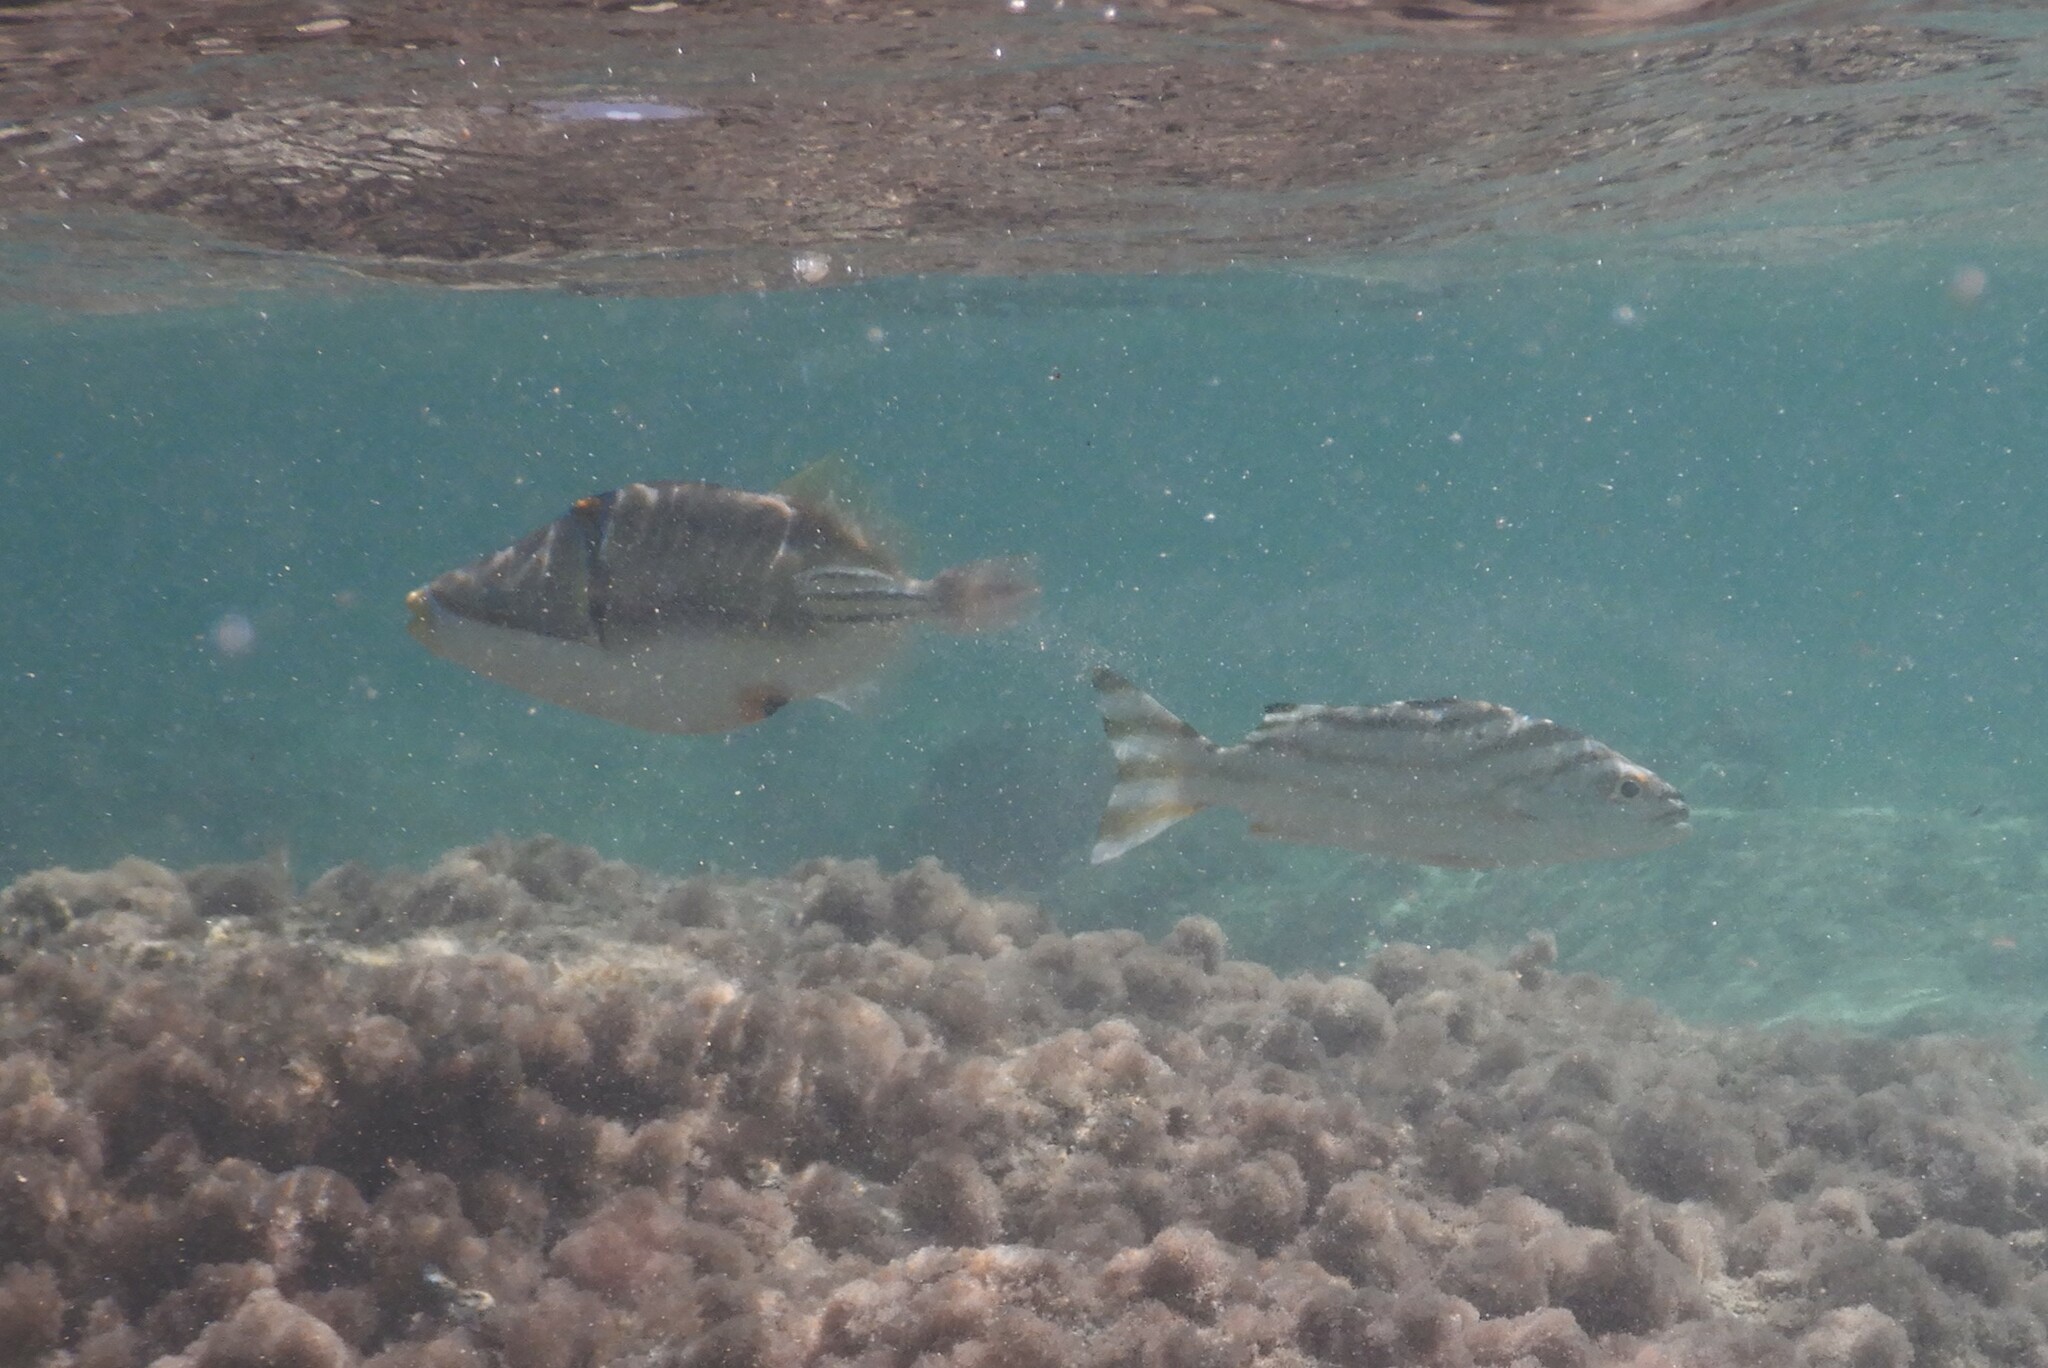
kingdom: Animalia
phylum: Chordata
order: Tetraodontiformes
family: Balistidae
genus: Rhinecanthus
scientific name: Rhinecanthus assasi
